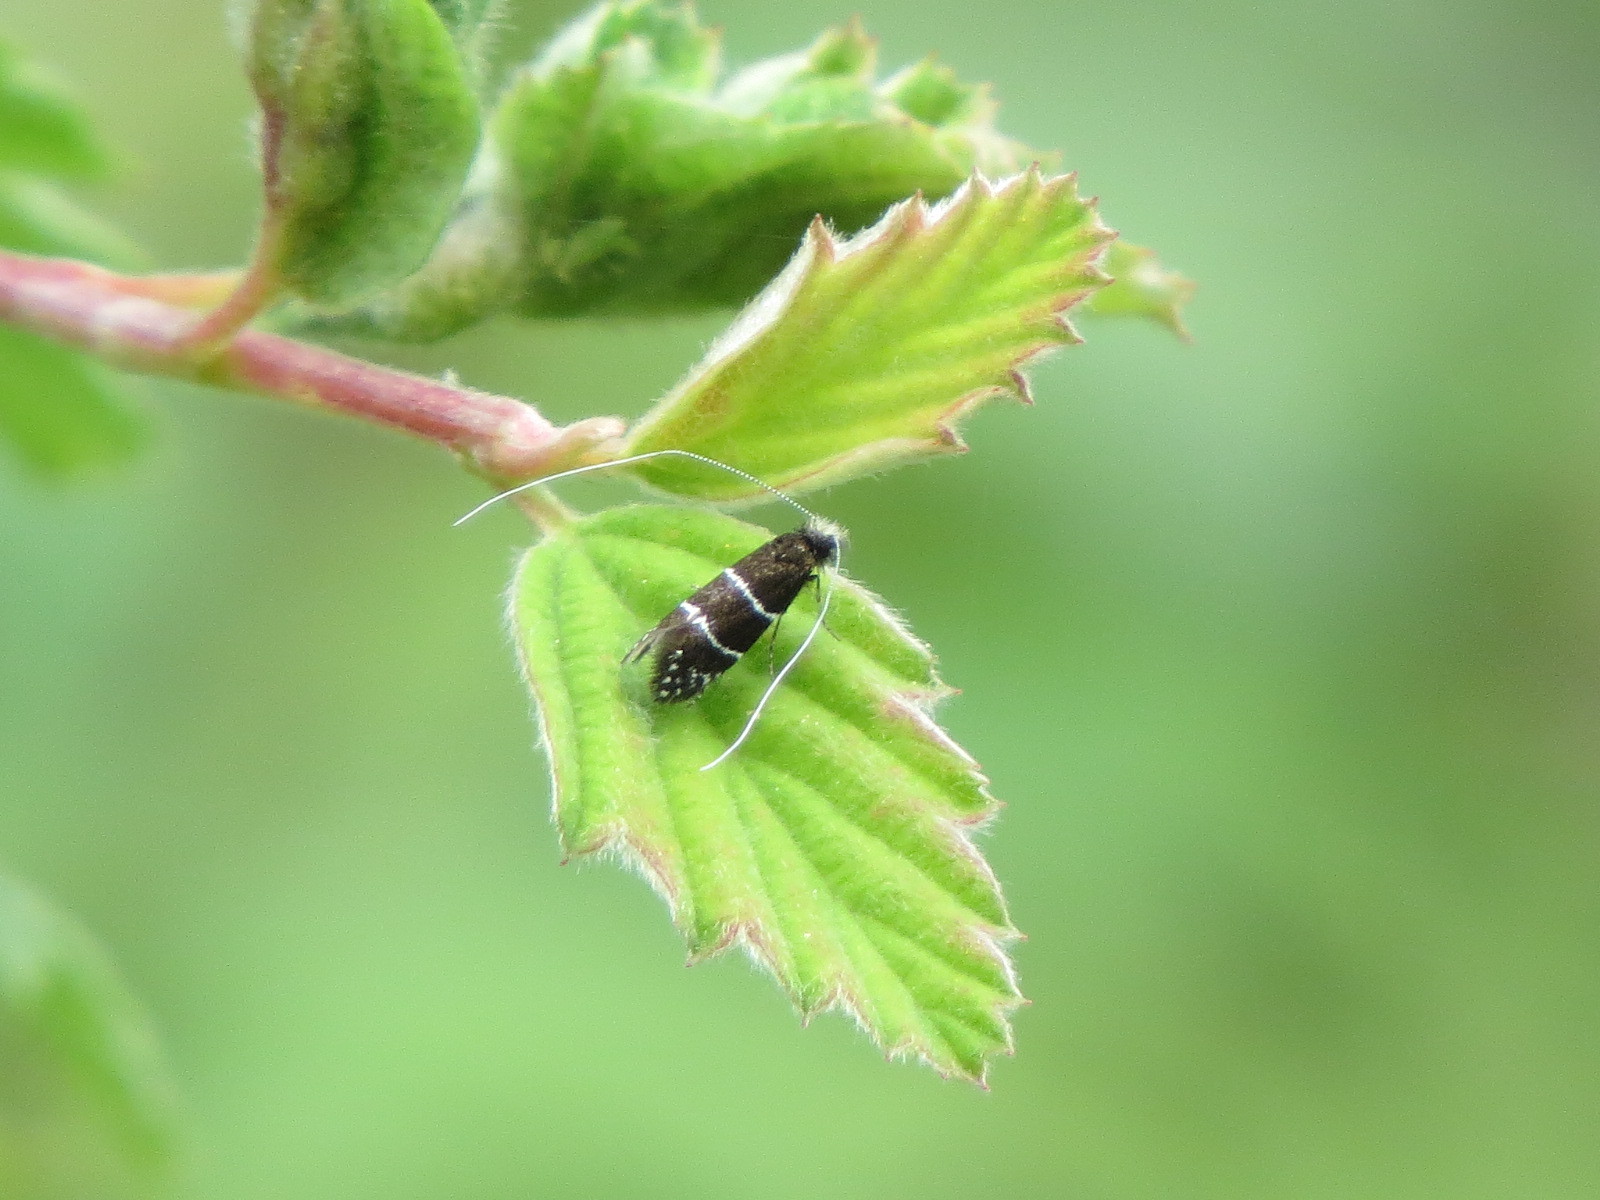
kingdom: Animalia
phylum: Arthropoda
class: Insecta
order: Lepidoptera
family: Adelidae
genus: Adela
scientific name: Adela septentrionella
